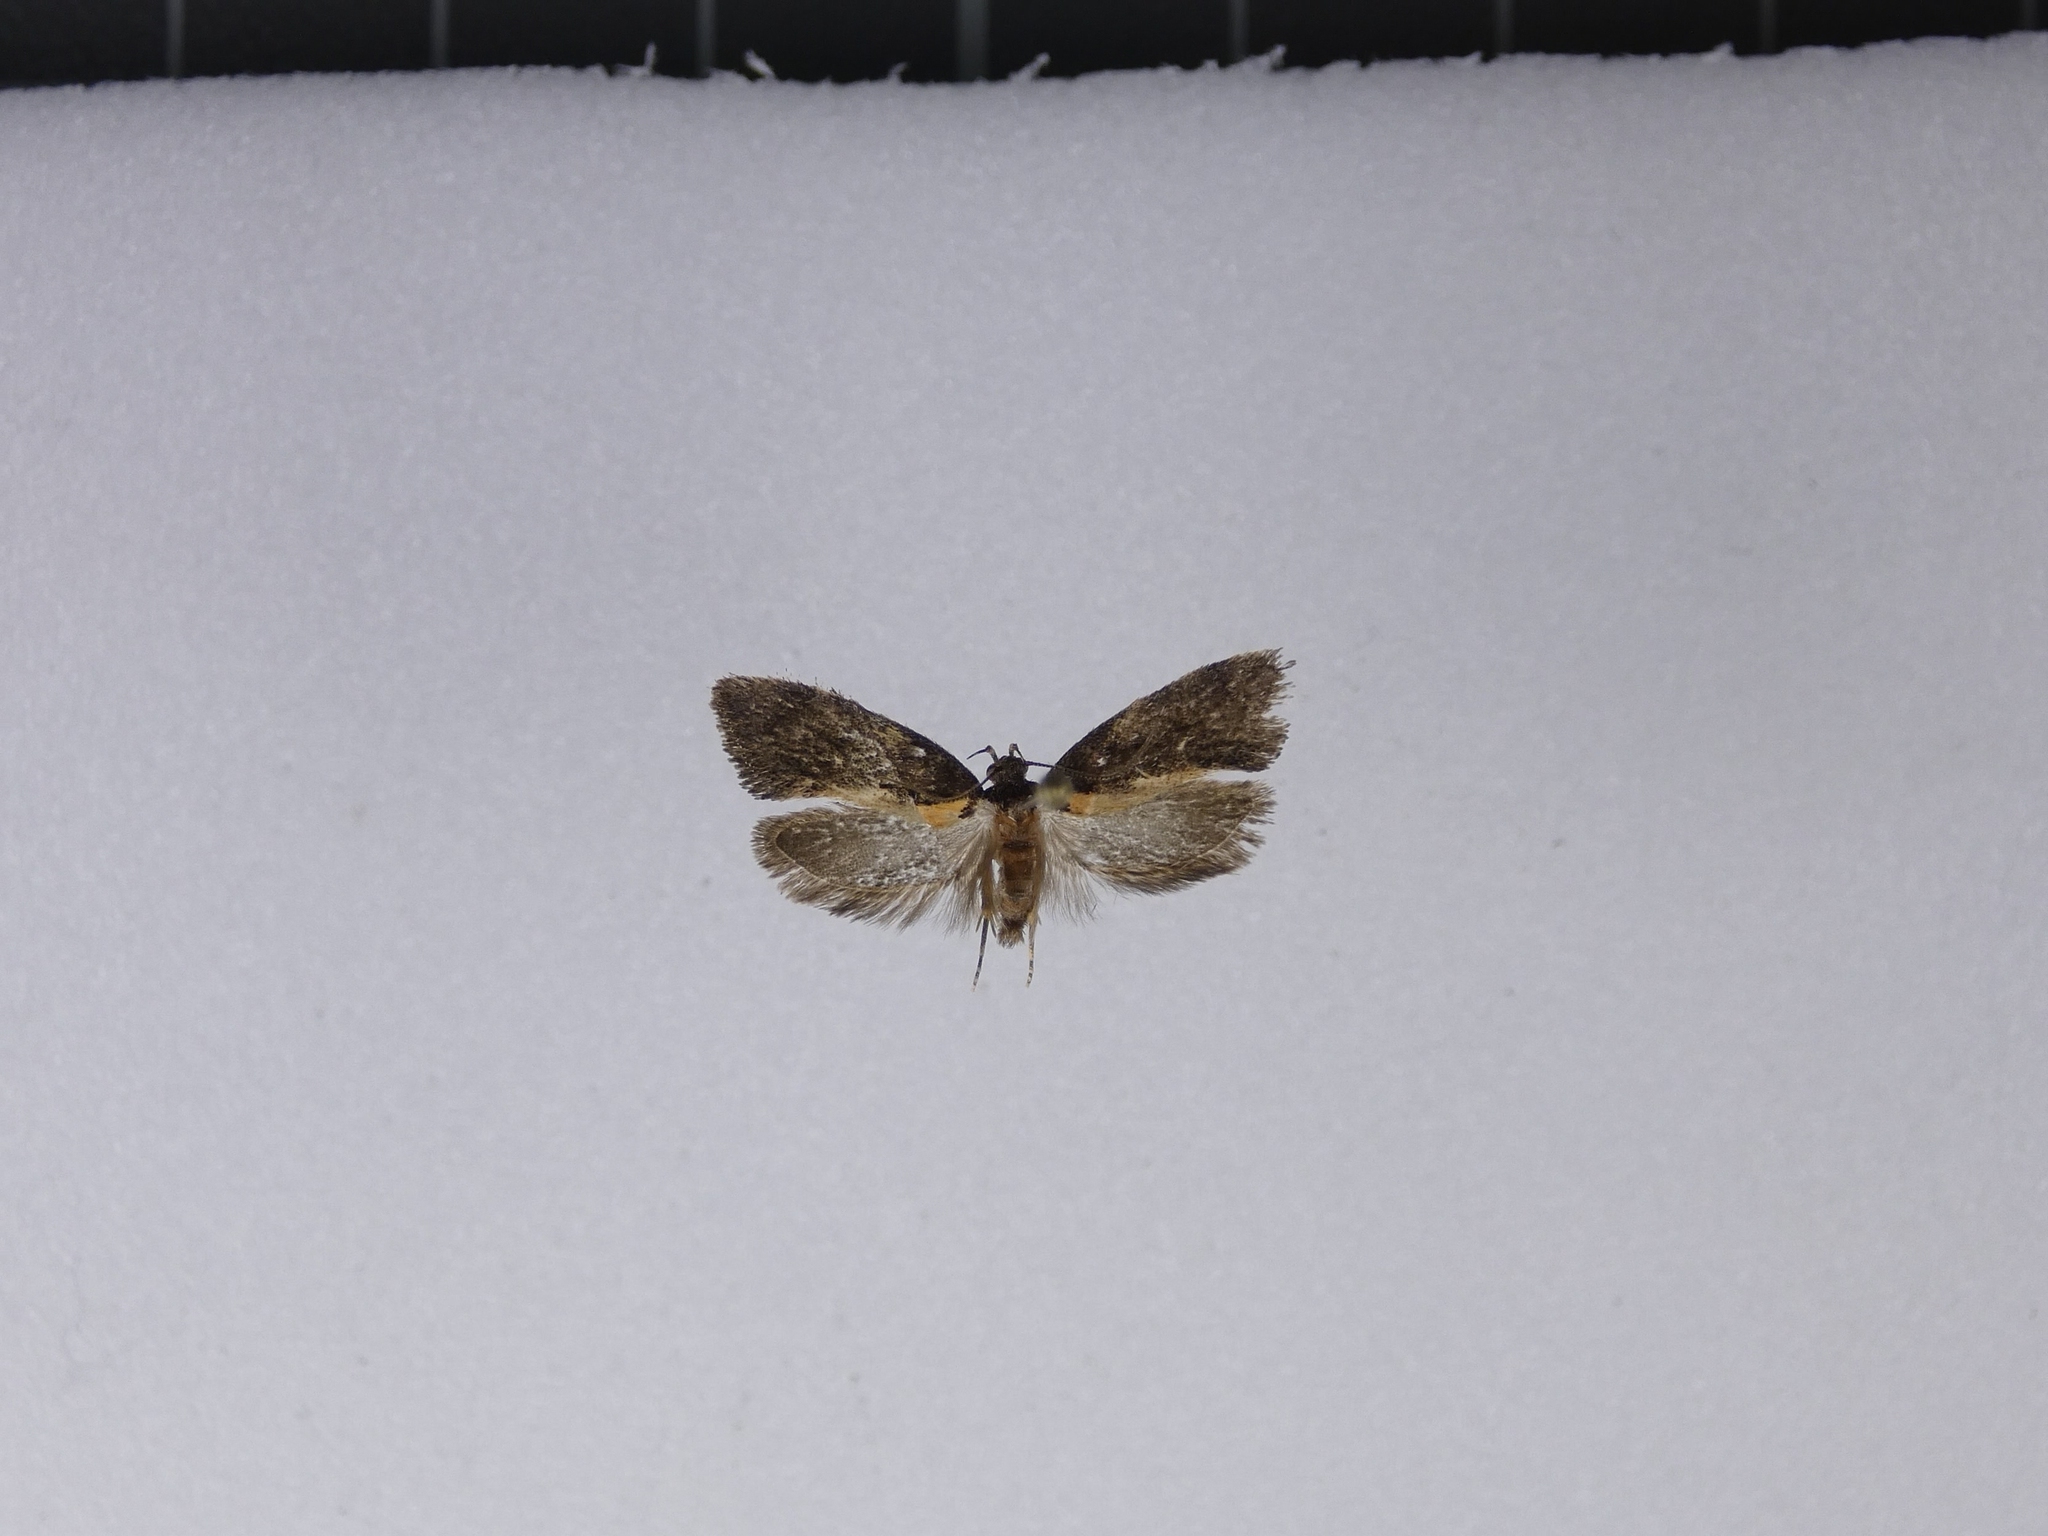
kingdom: Animalia
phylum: Arthropoda
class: Insecta
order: Lepidoptera
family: Oecophoridae
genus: Tingena
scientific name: Tingena basella
